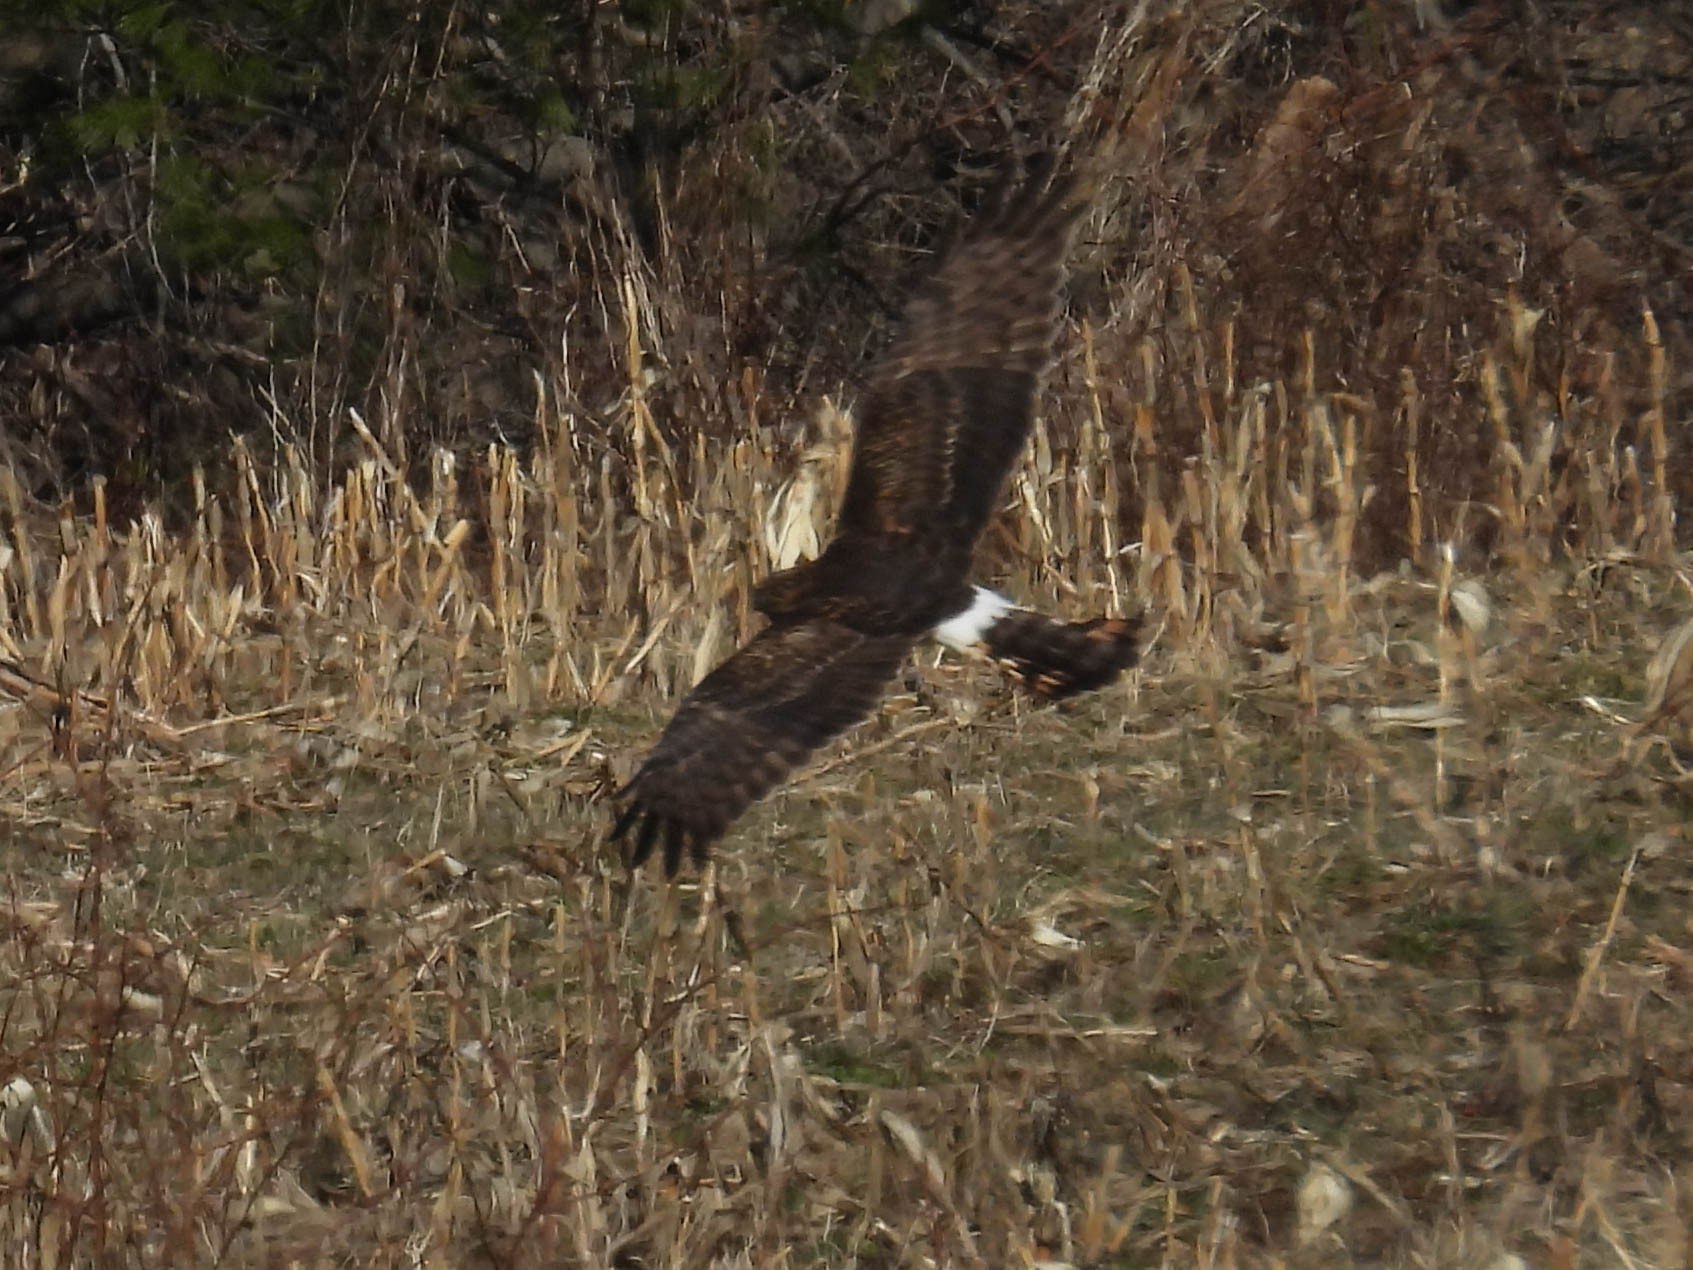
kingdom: Animalia
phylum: Chordata
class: Aves
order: Accipitriformes
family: Accipitridae
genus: Circus
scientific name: Circus cyaneus
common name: Hen harrier
